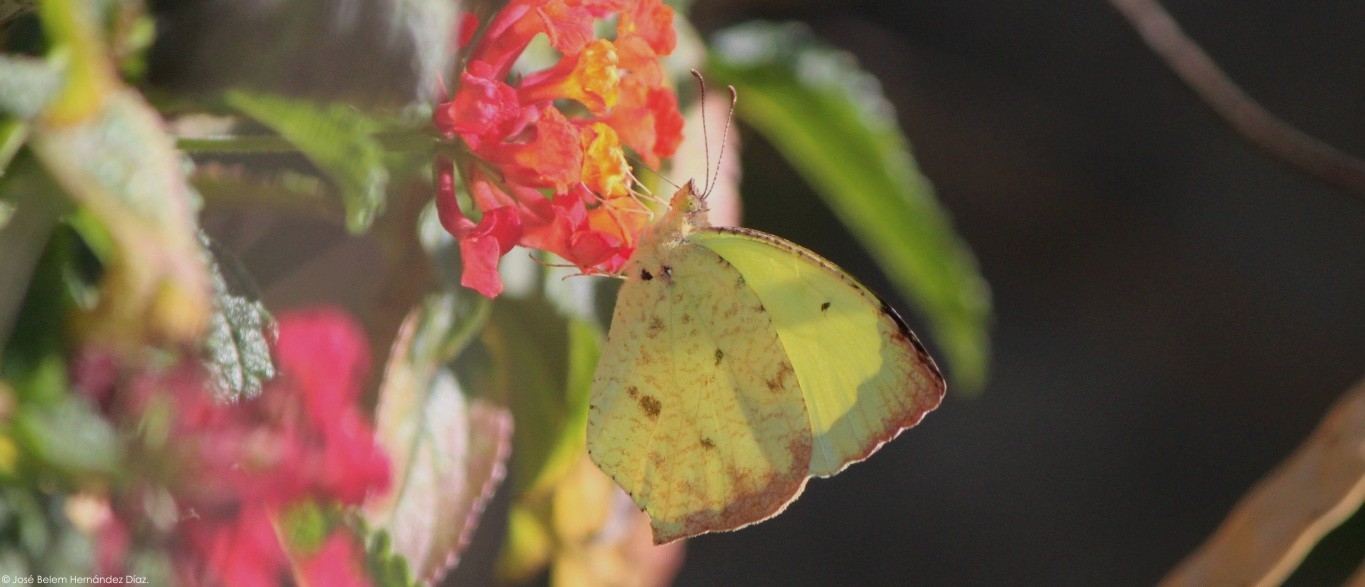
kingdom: Animalia
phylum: Arthropoda
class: Insecta
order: Lepidoptera
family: Pieridae
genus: Abaeis
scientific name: Abaeis salome
